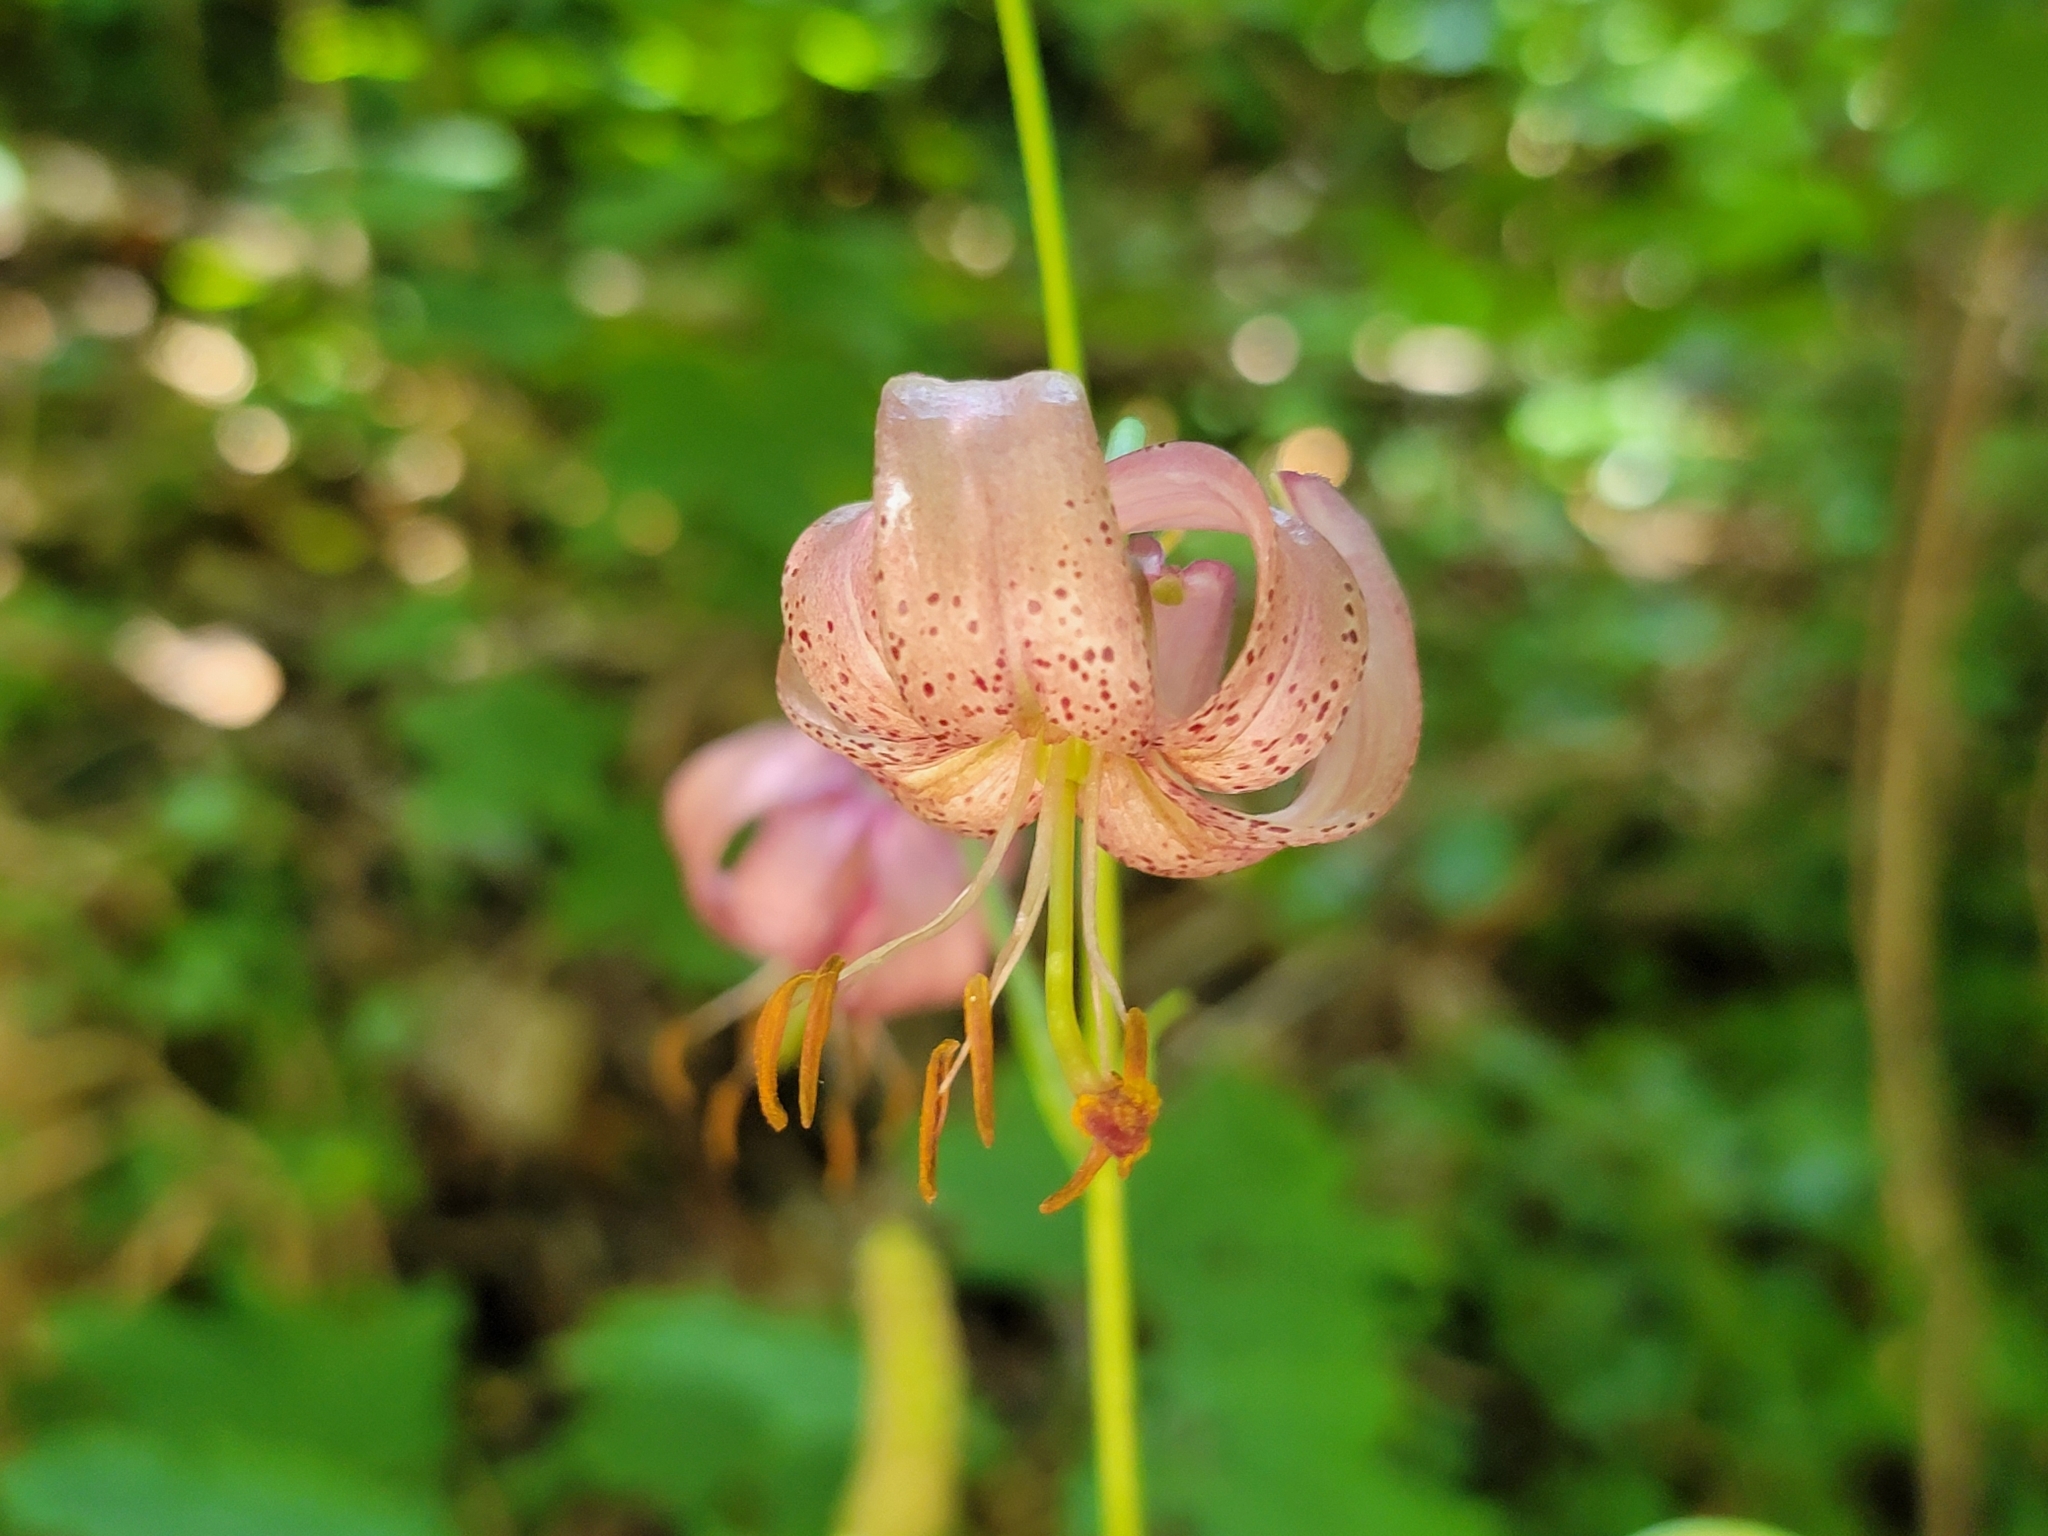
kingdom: Plantae
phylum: Tracheophyta
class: Liliopsida
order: Liliales
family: Liliaceae
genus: Lilium
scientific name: Lilium martagon
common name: Martagon lily
